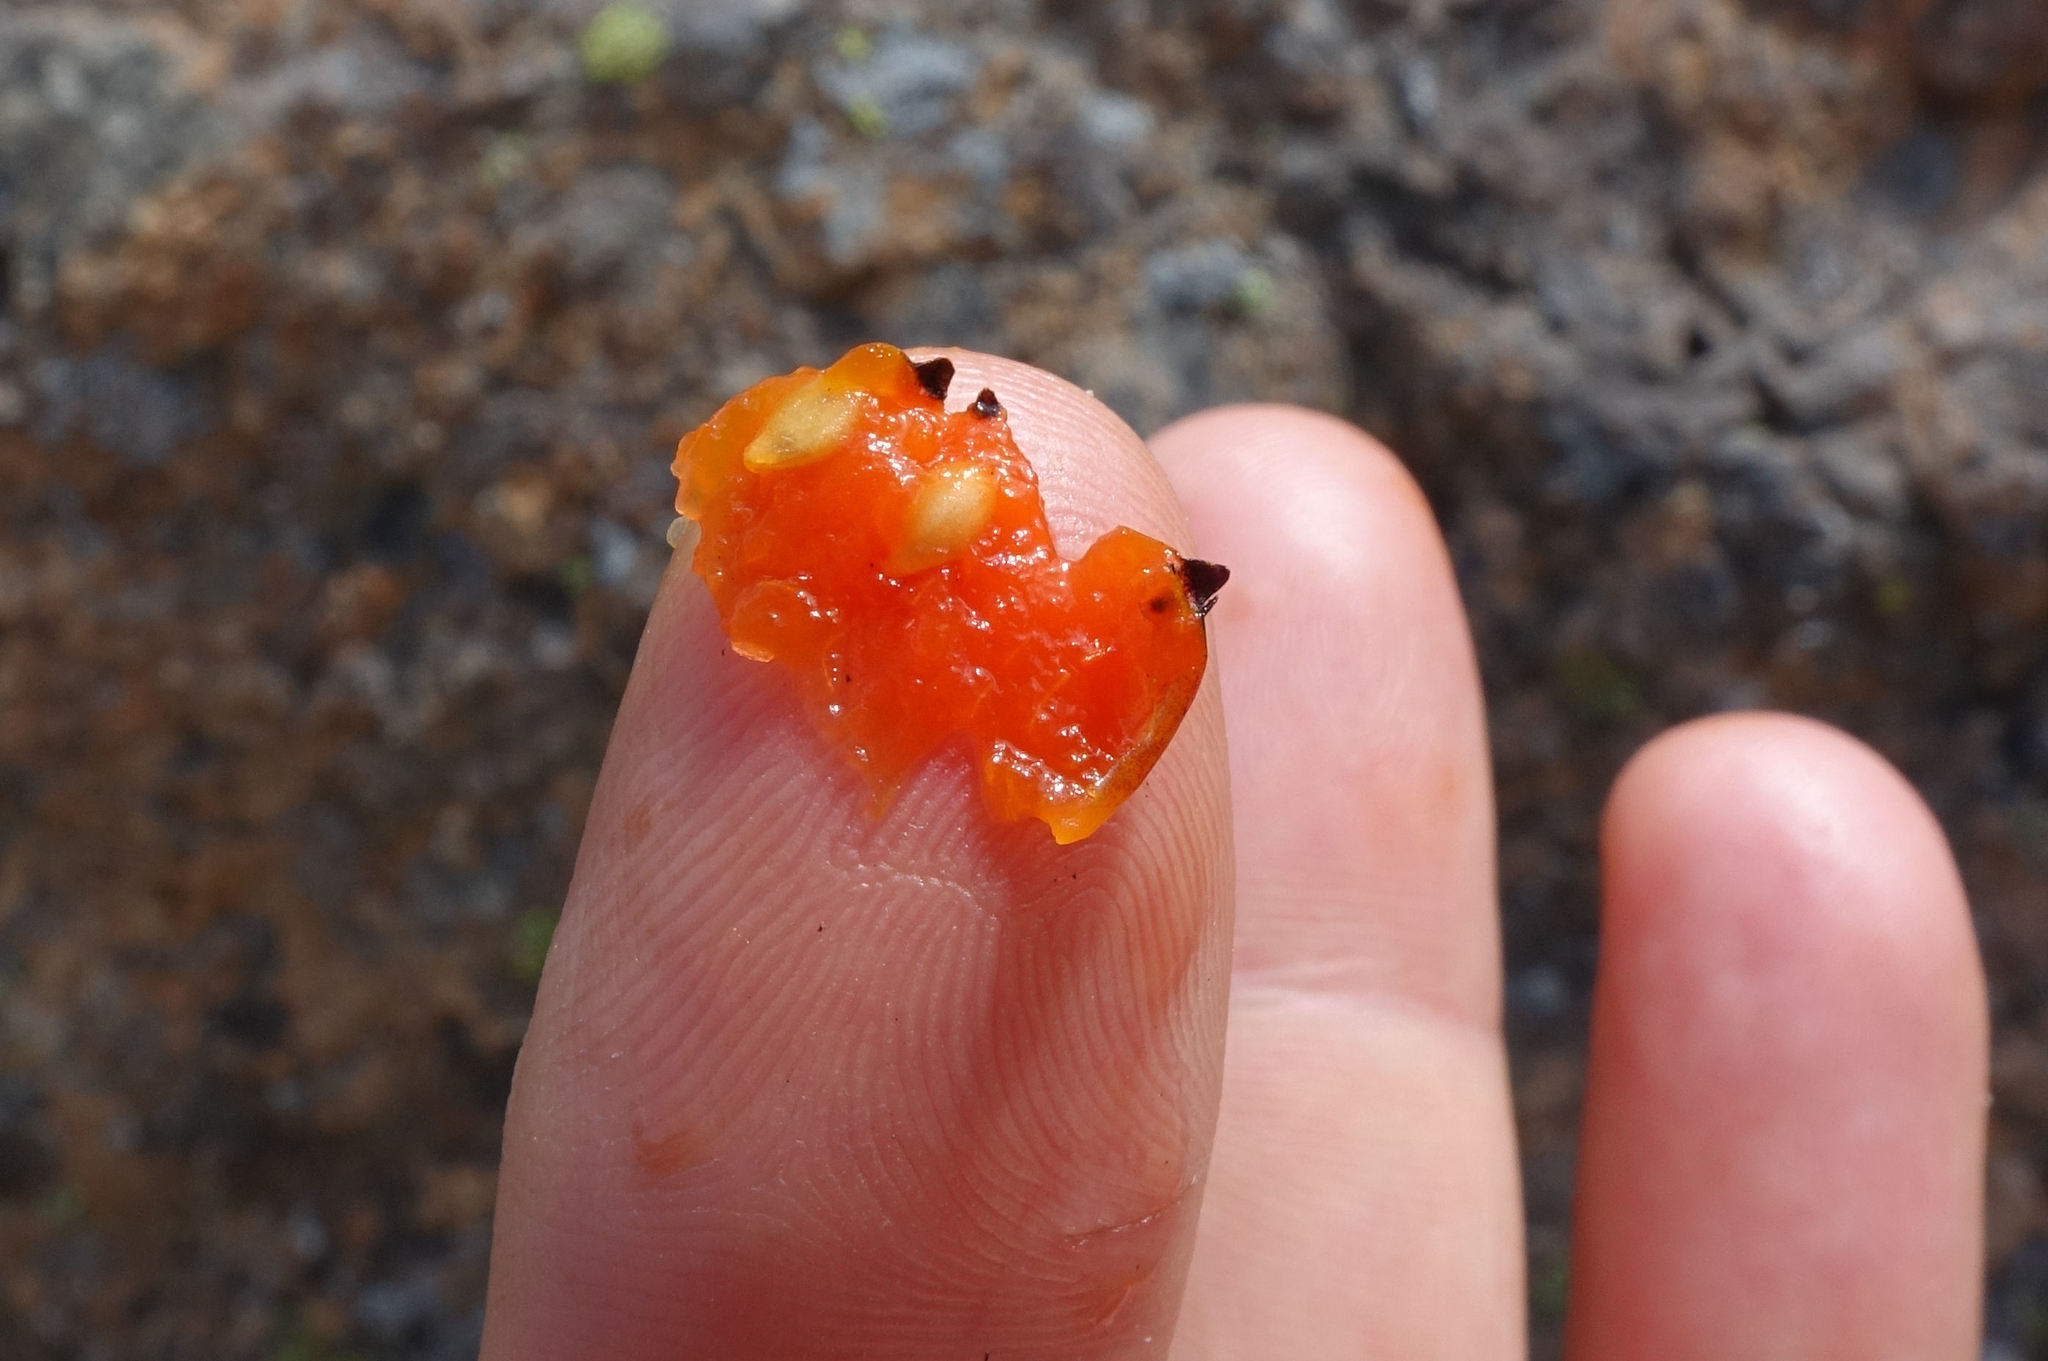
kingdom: Plantae
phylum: Tracheophyta
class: Magnoliopsida
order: Gentianales
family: Rubiaceae
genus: Coprosma
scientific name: Coprosma niphophila
